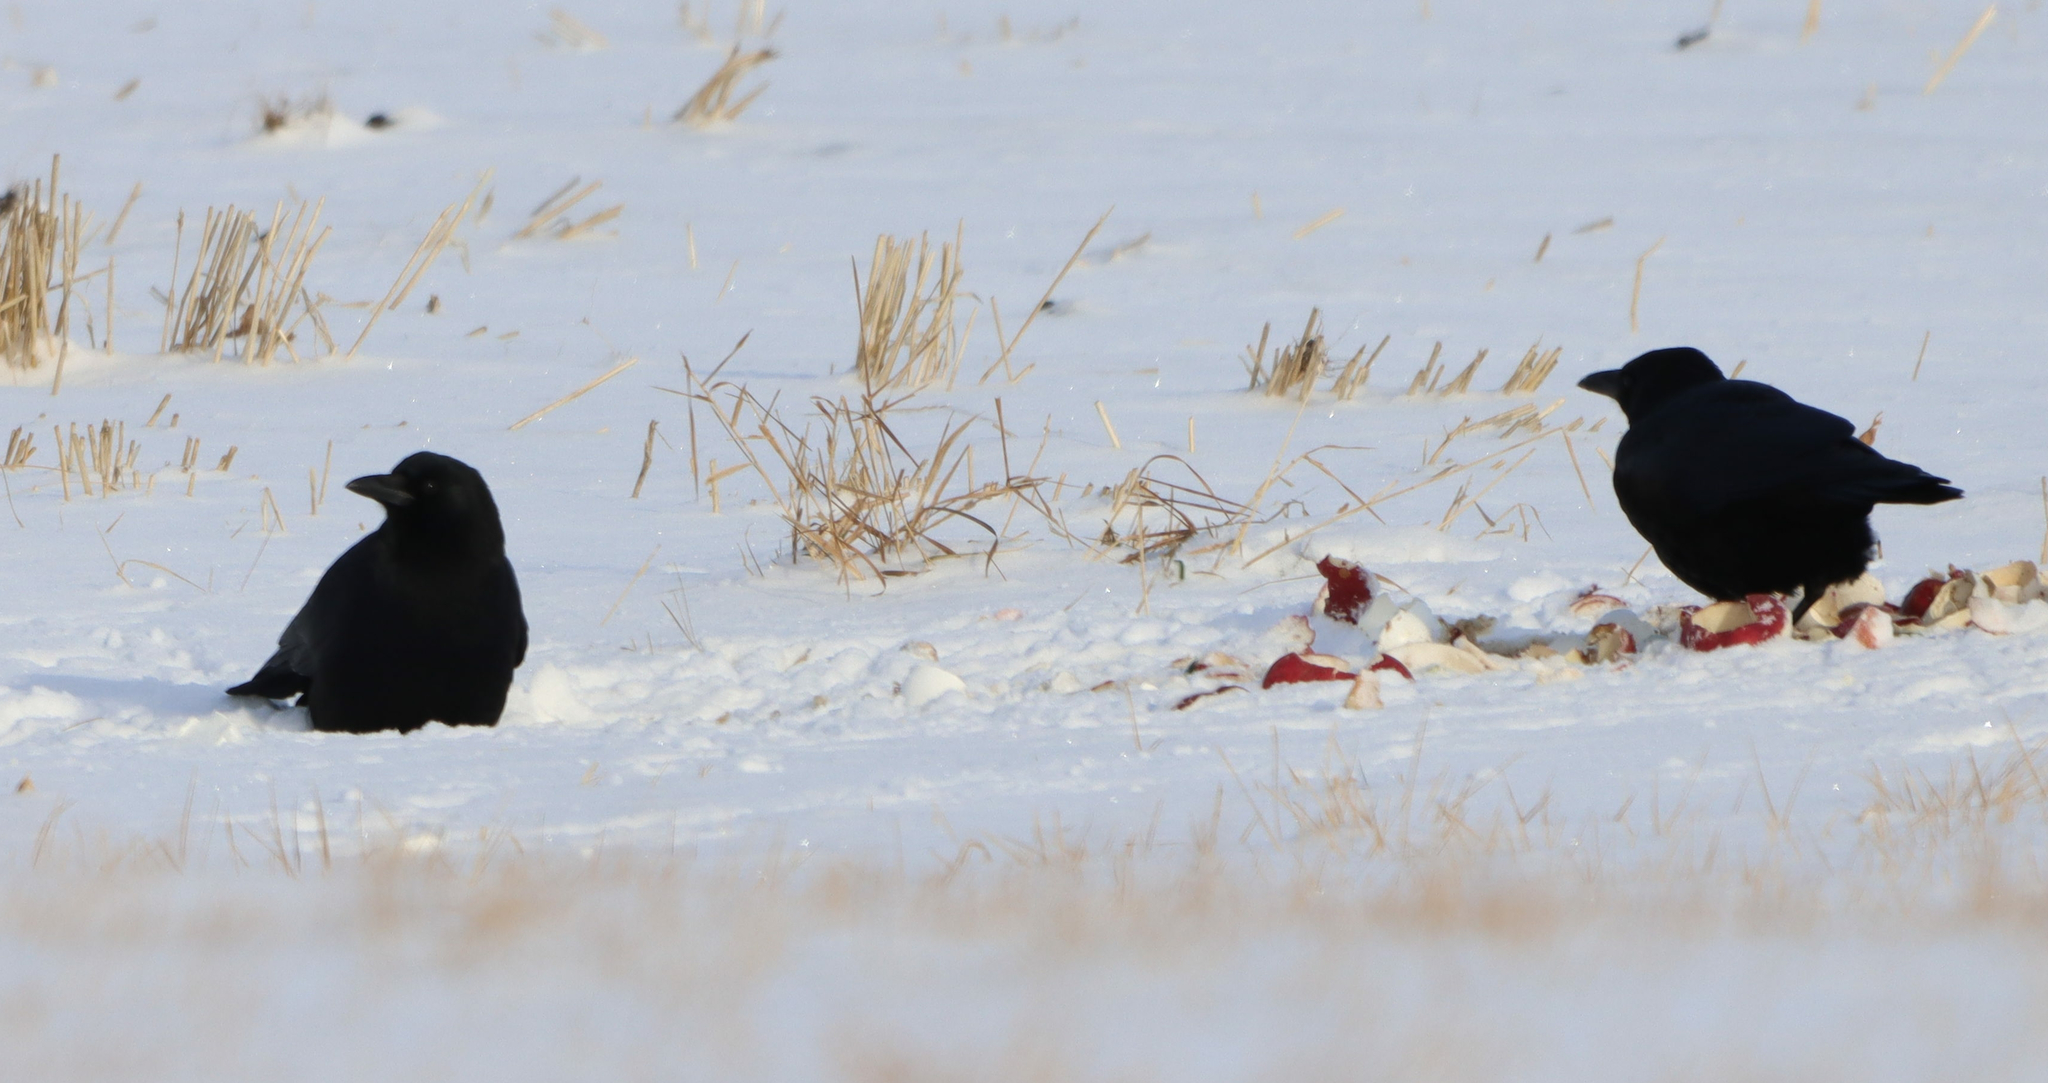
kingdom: Animalia
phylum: Chordata
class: Aves
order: Passeriformes
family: Corvidae
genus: Corvus
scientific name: Corvus corax
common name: Common raven
